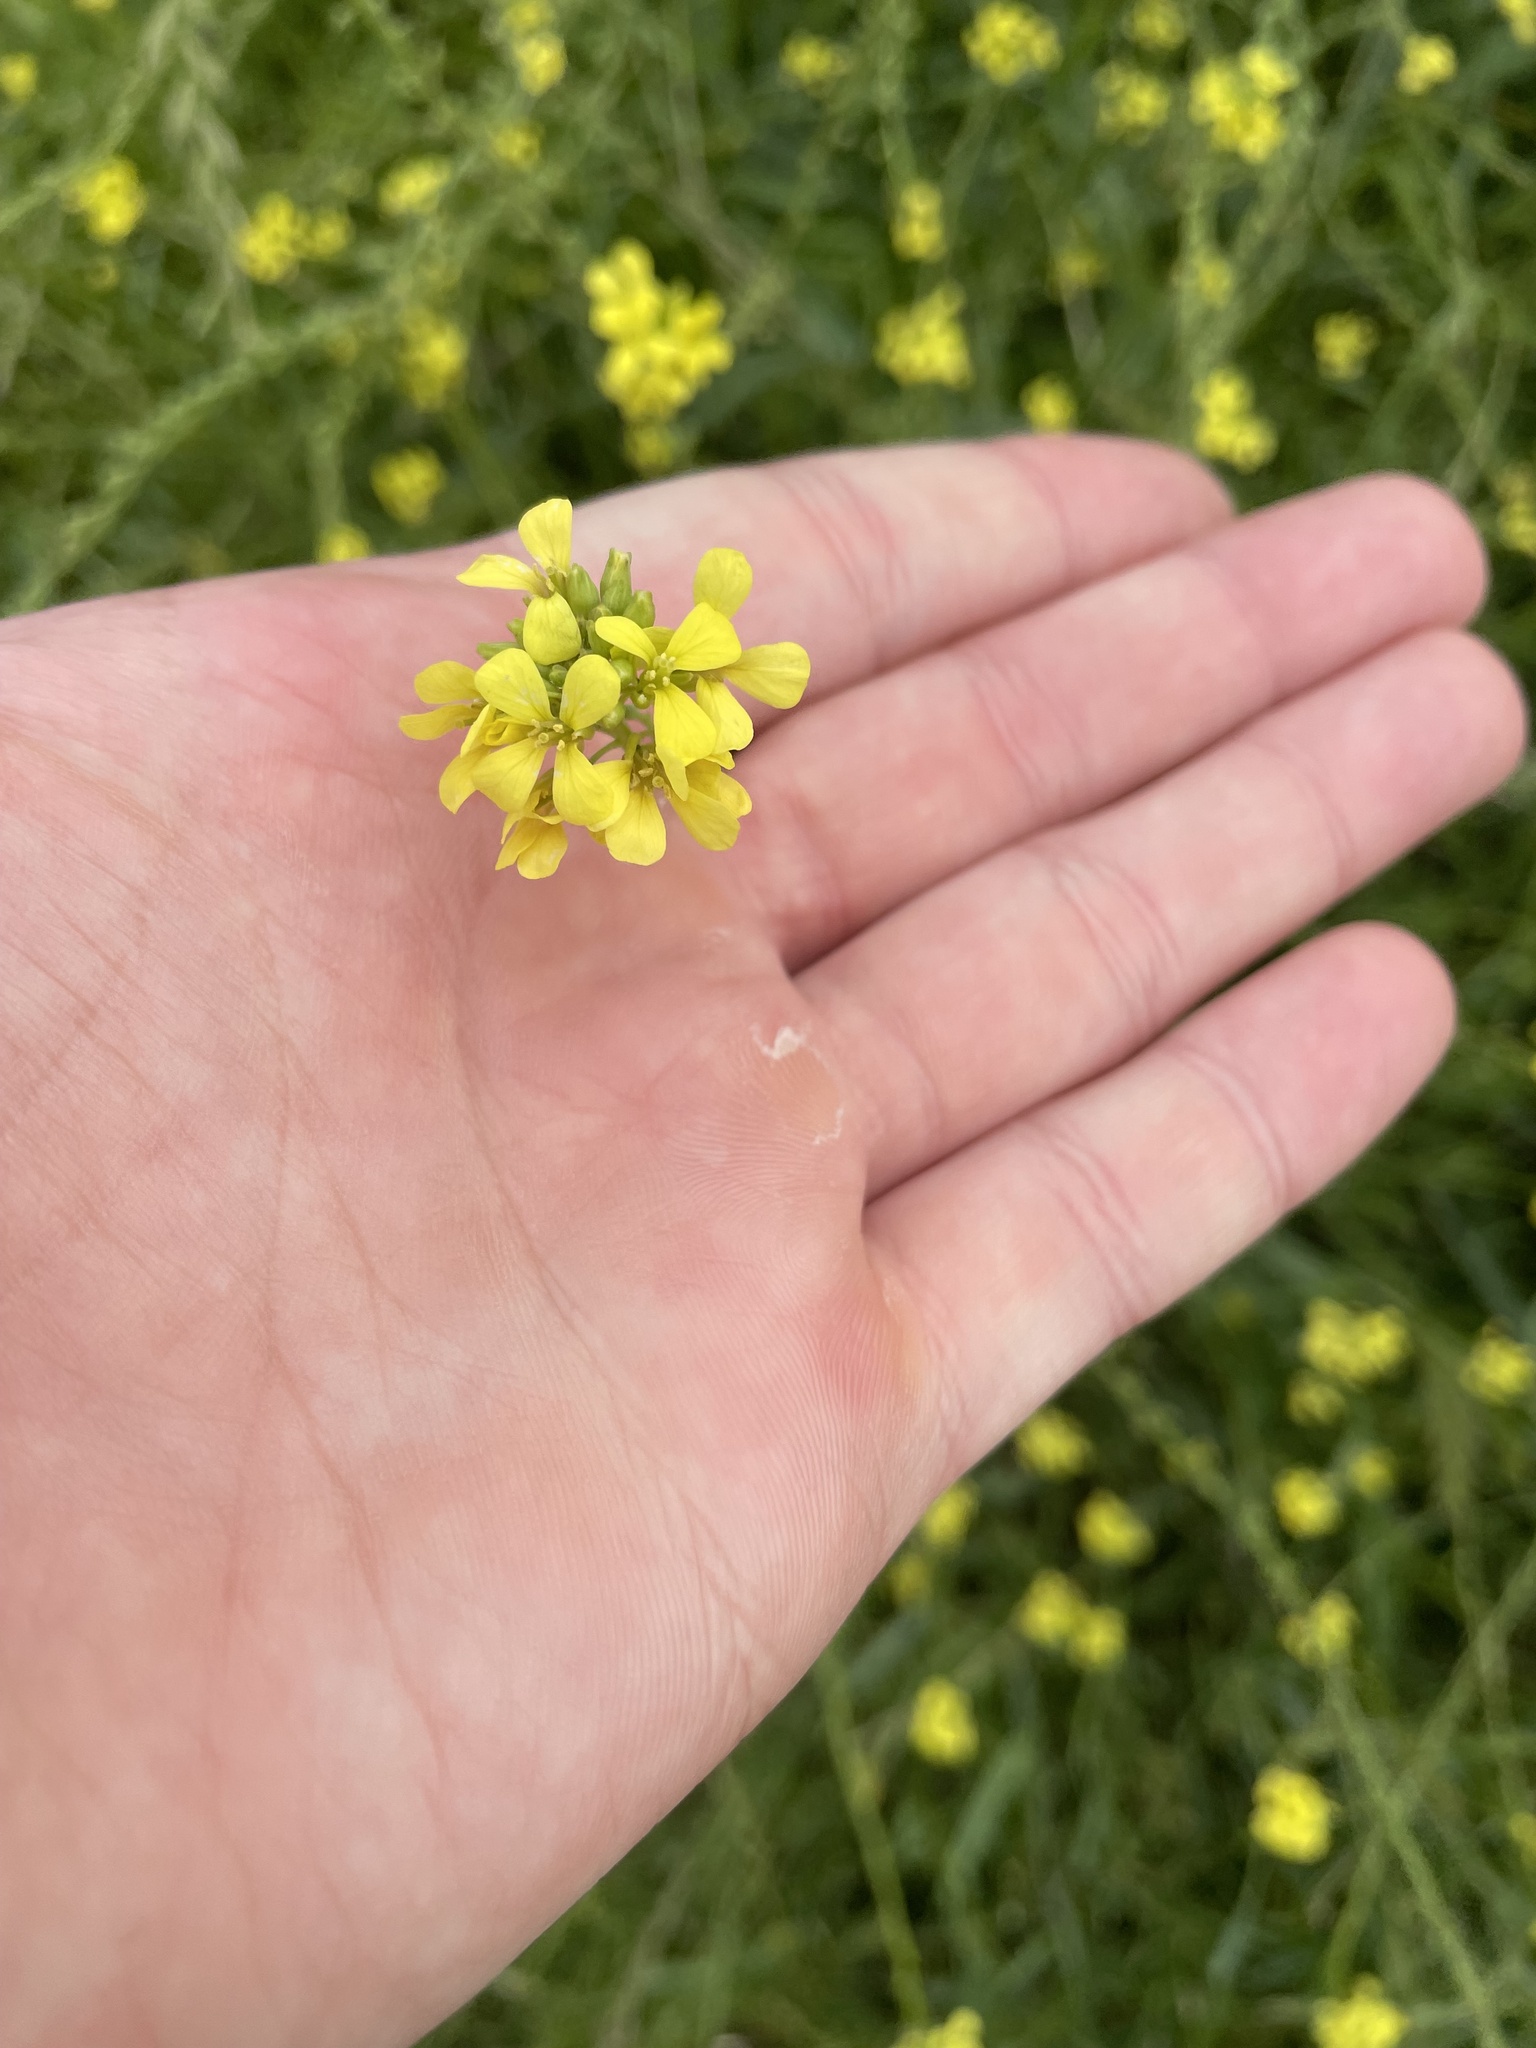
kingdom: Plantae
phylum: Tracheophyta
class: Magnoliopsida
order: Brassicales
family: Brassicaceae
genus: Rapistrum
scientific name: Rapistrum rugosum
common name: Annual bastardcabbage
